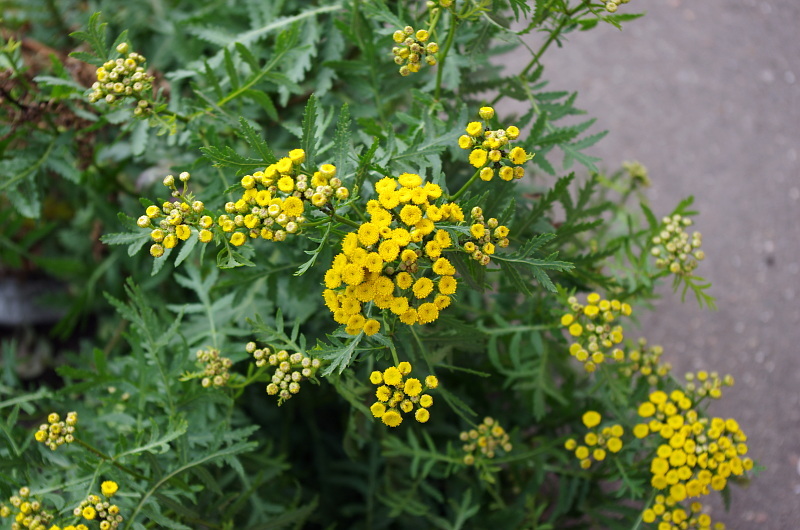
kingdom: Plantae
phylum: Tracheophyta
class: Magnoliopsida
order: Asterales
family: Asteraceae
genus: Tanacetum
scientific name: Tanacetum vulgare
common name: Common tansy
